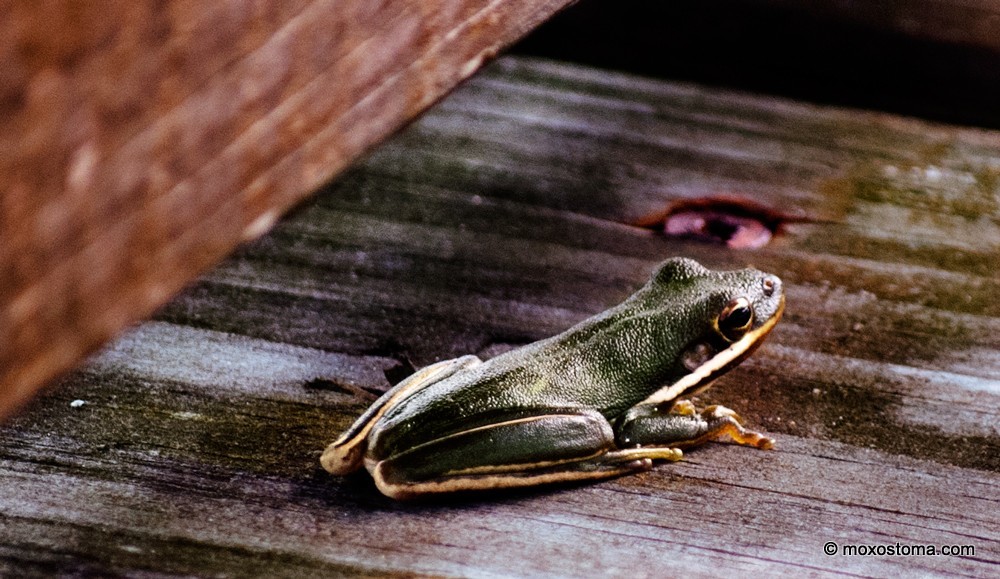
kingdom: Animalia
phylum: Chordata
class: Amphibia
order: Anura
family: Hylidae
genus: Dryophytes
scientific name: Dryophytes cinereus
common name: Green treefrog
